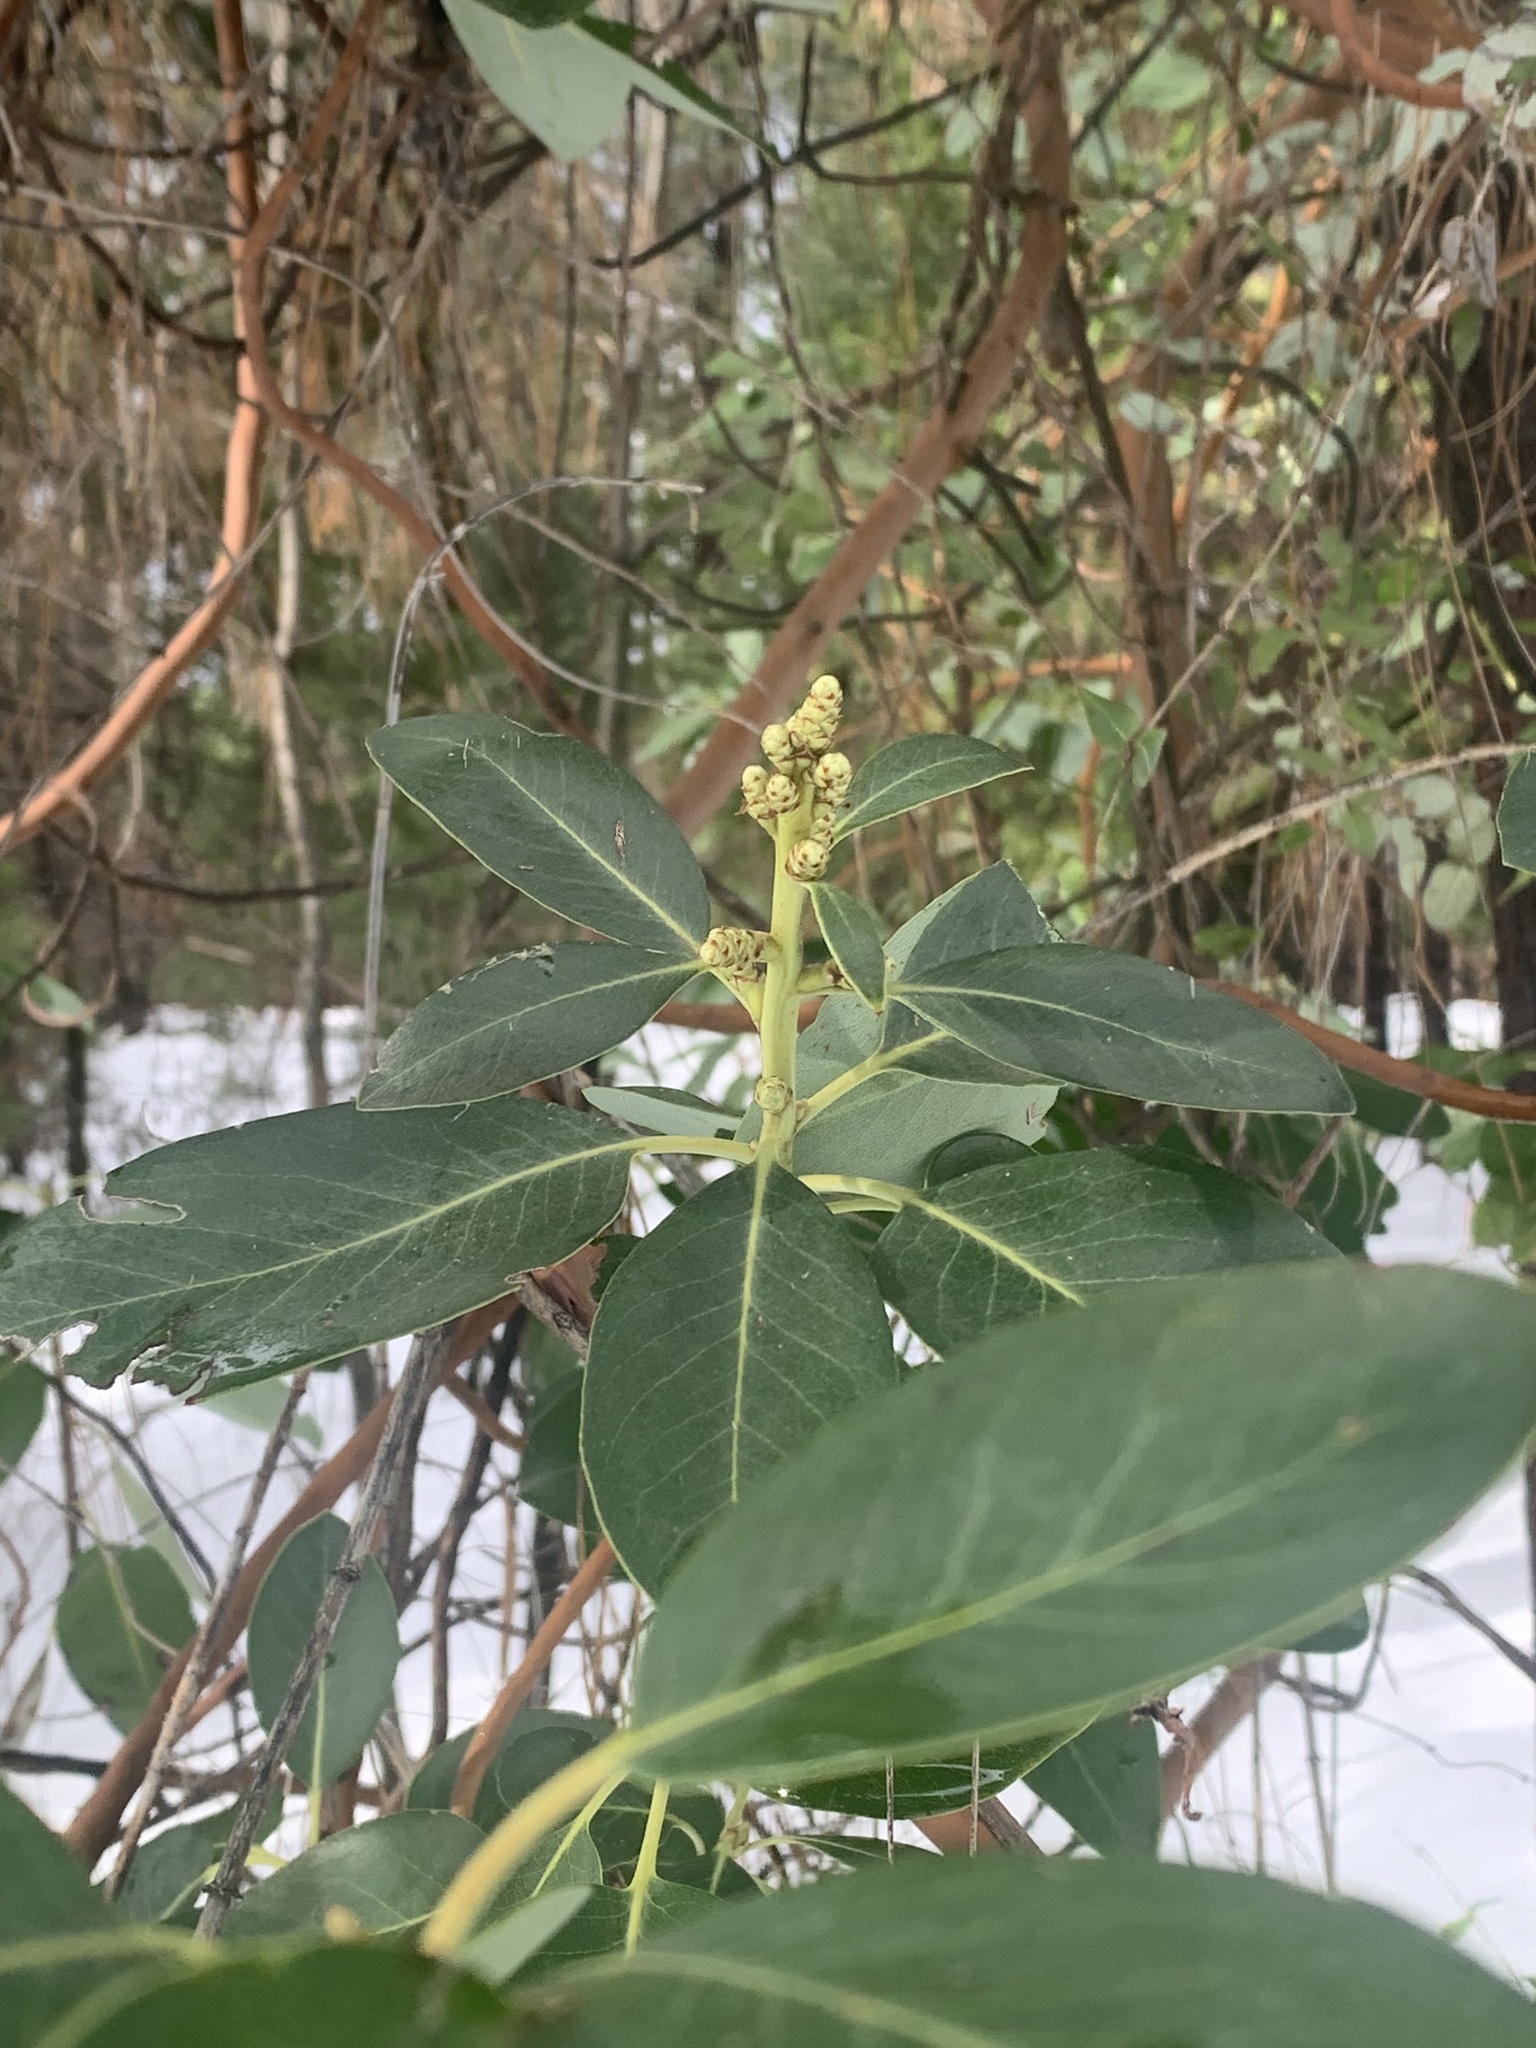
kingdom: Plantae
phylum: Tracheophyta
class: Magnoliopsida
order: Ericales
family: Ericaceae
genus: Arbutus
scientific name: Arbutus menziesii
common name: Pacific madrone
